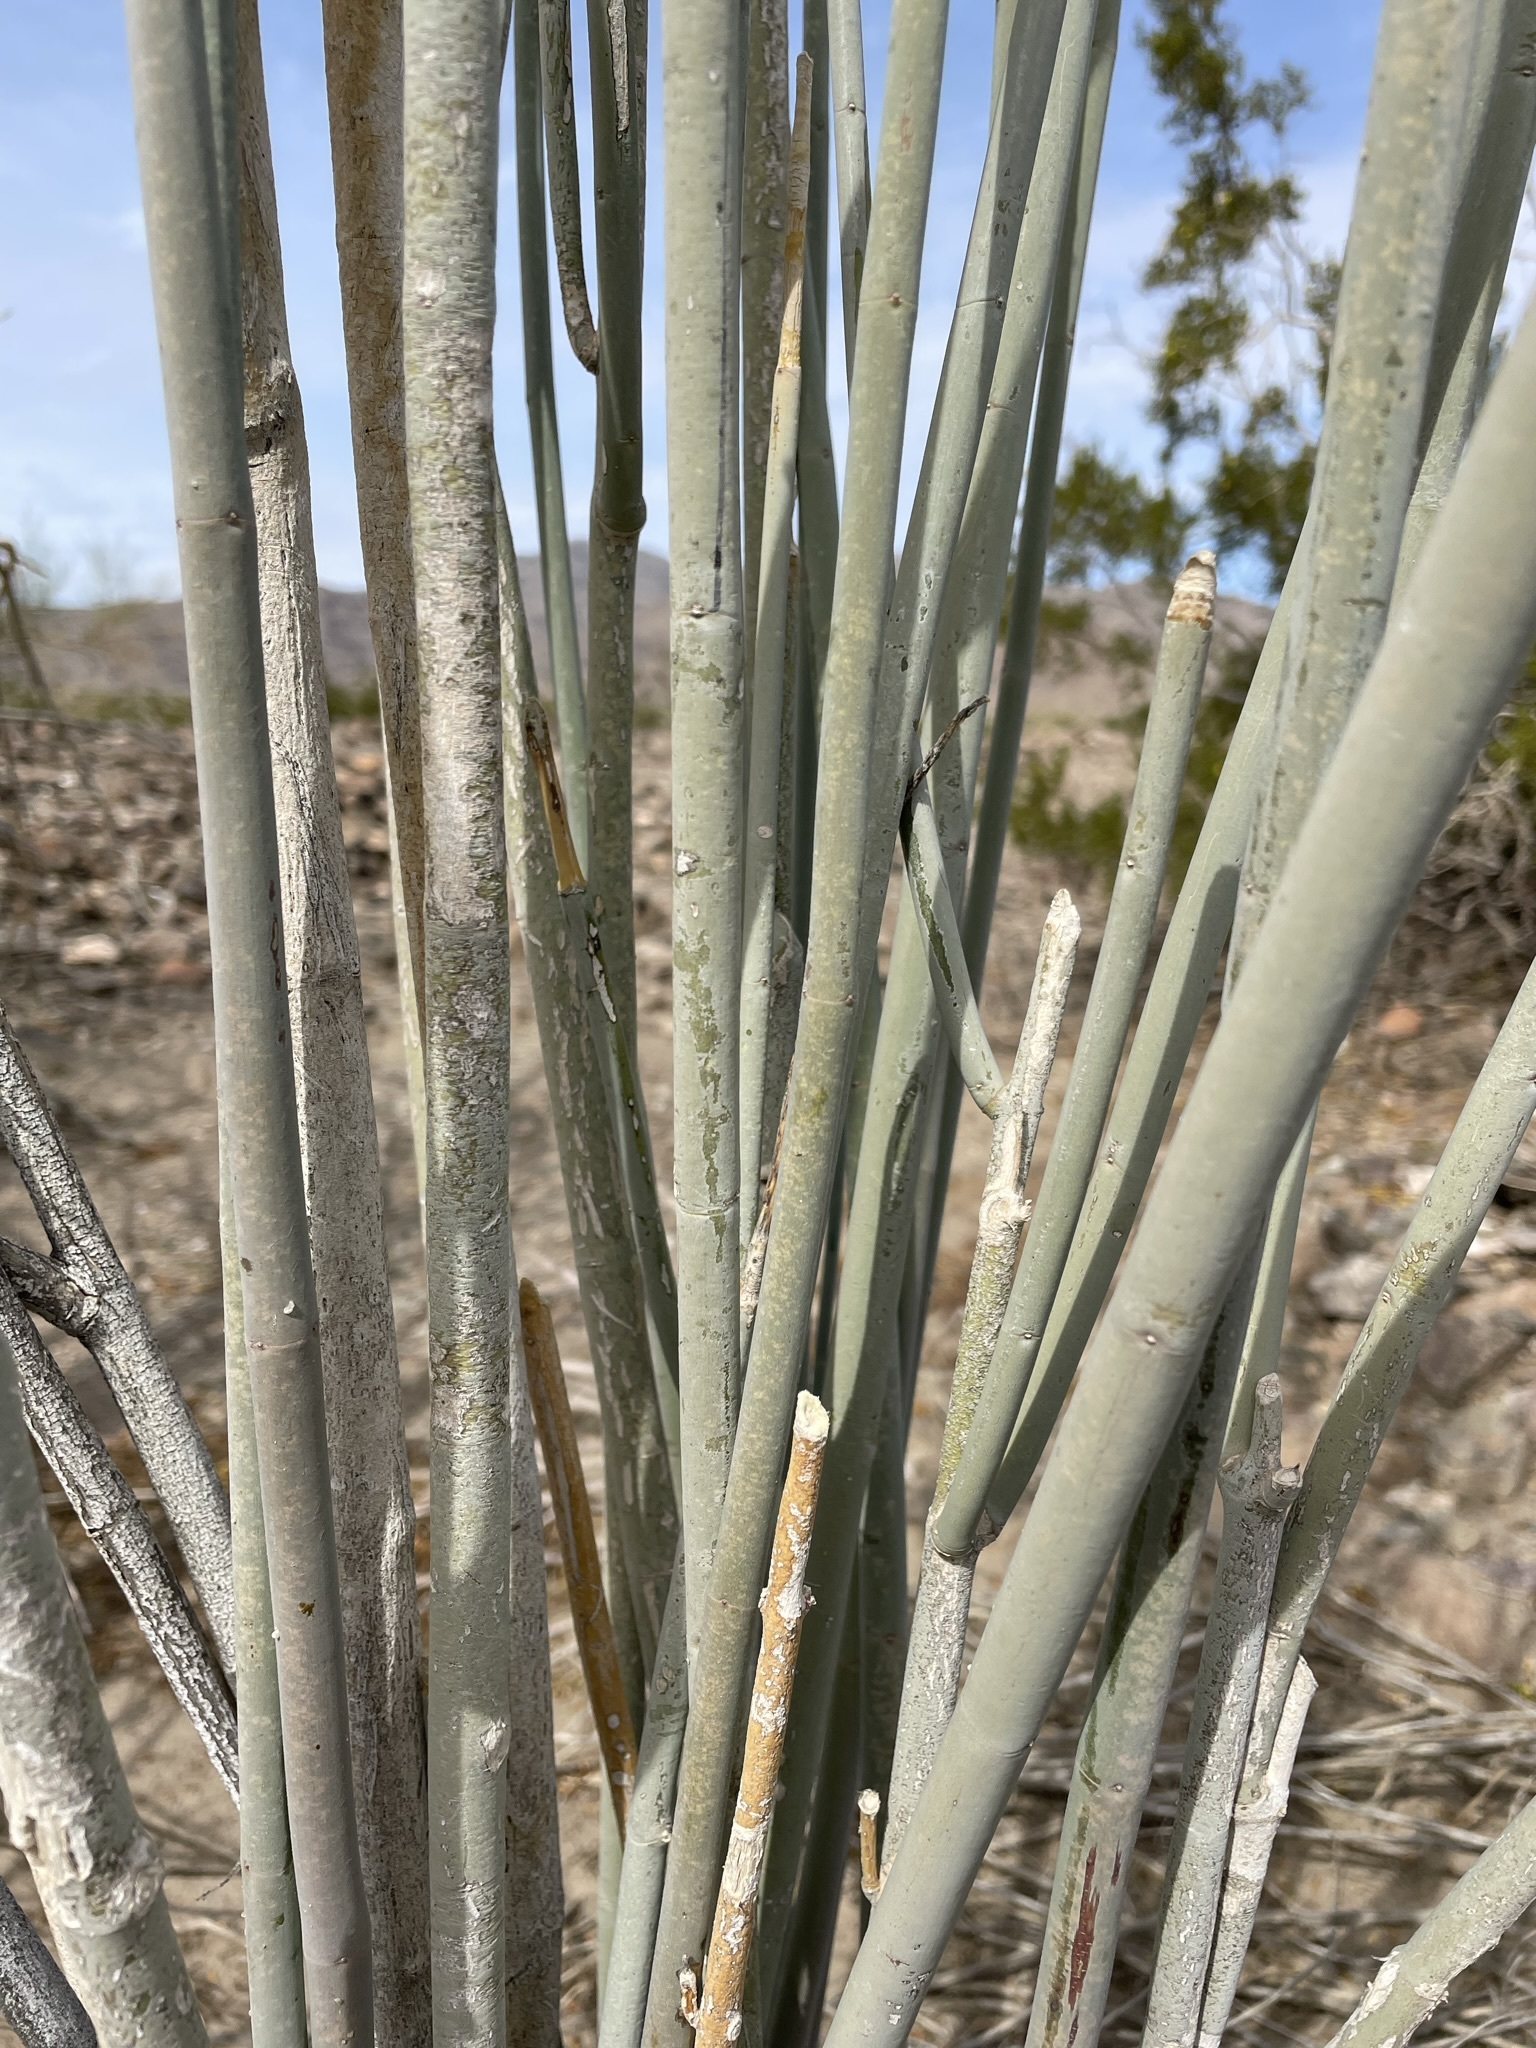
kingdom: Plantae
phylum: Tracheophyta
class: Magnoliopsida
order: Gentianales
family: Apocynaceae
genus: Asclepias
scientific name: Asclepias albicans
